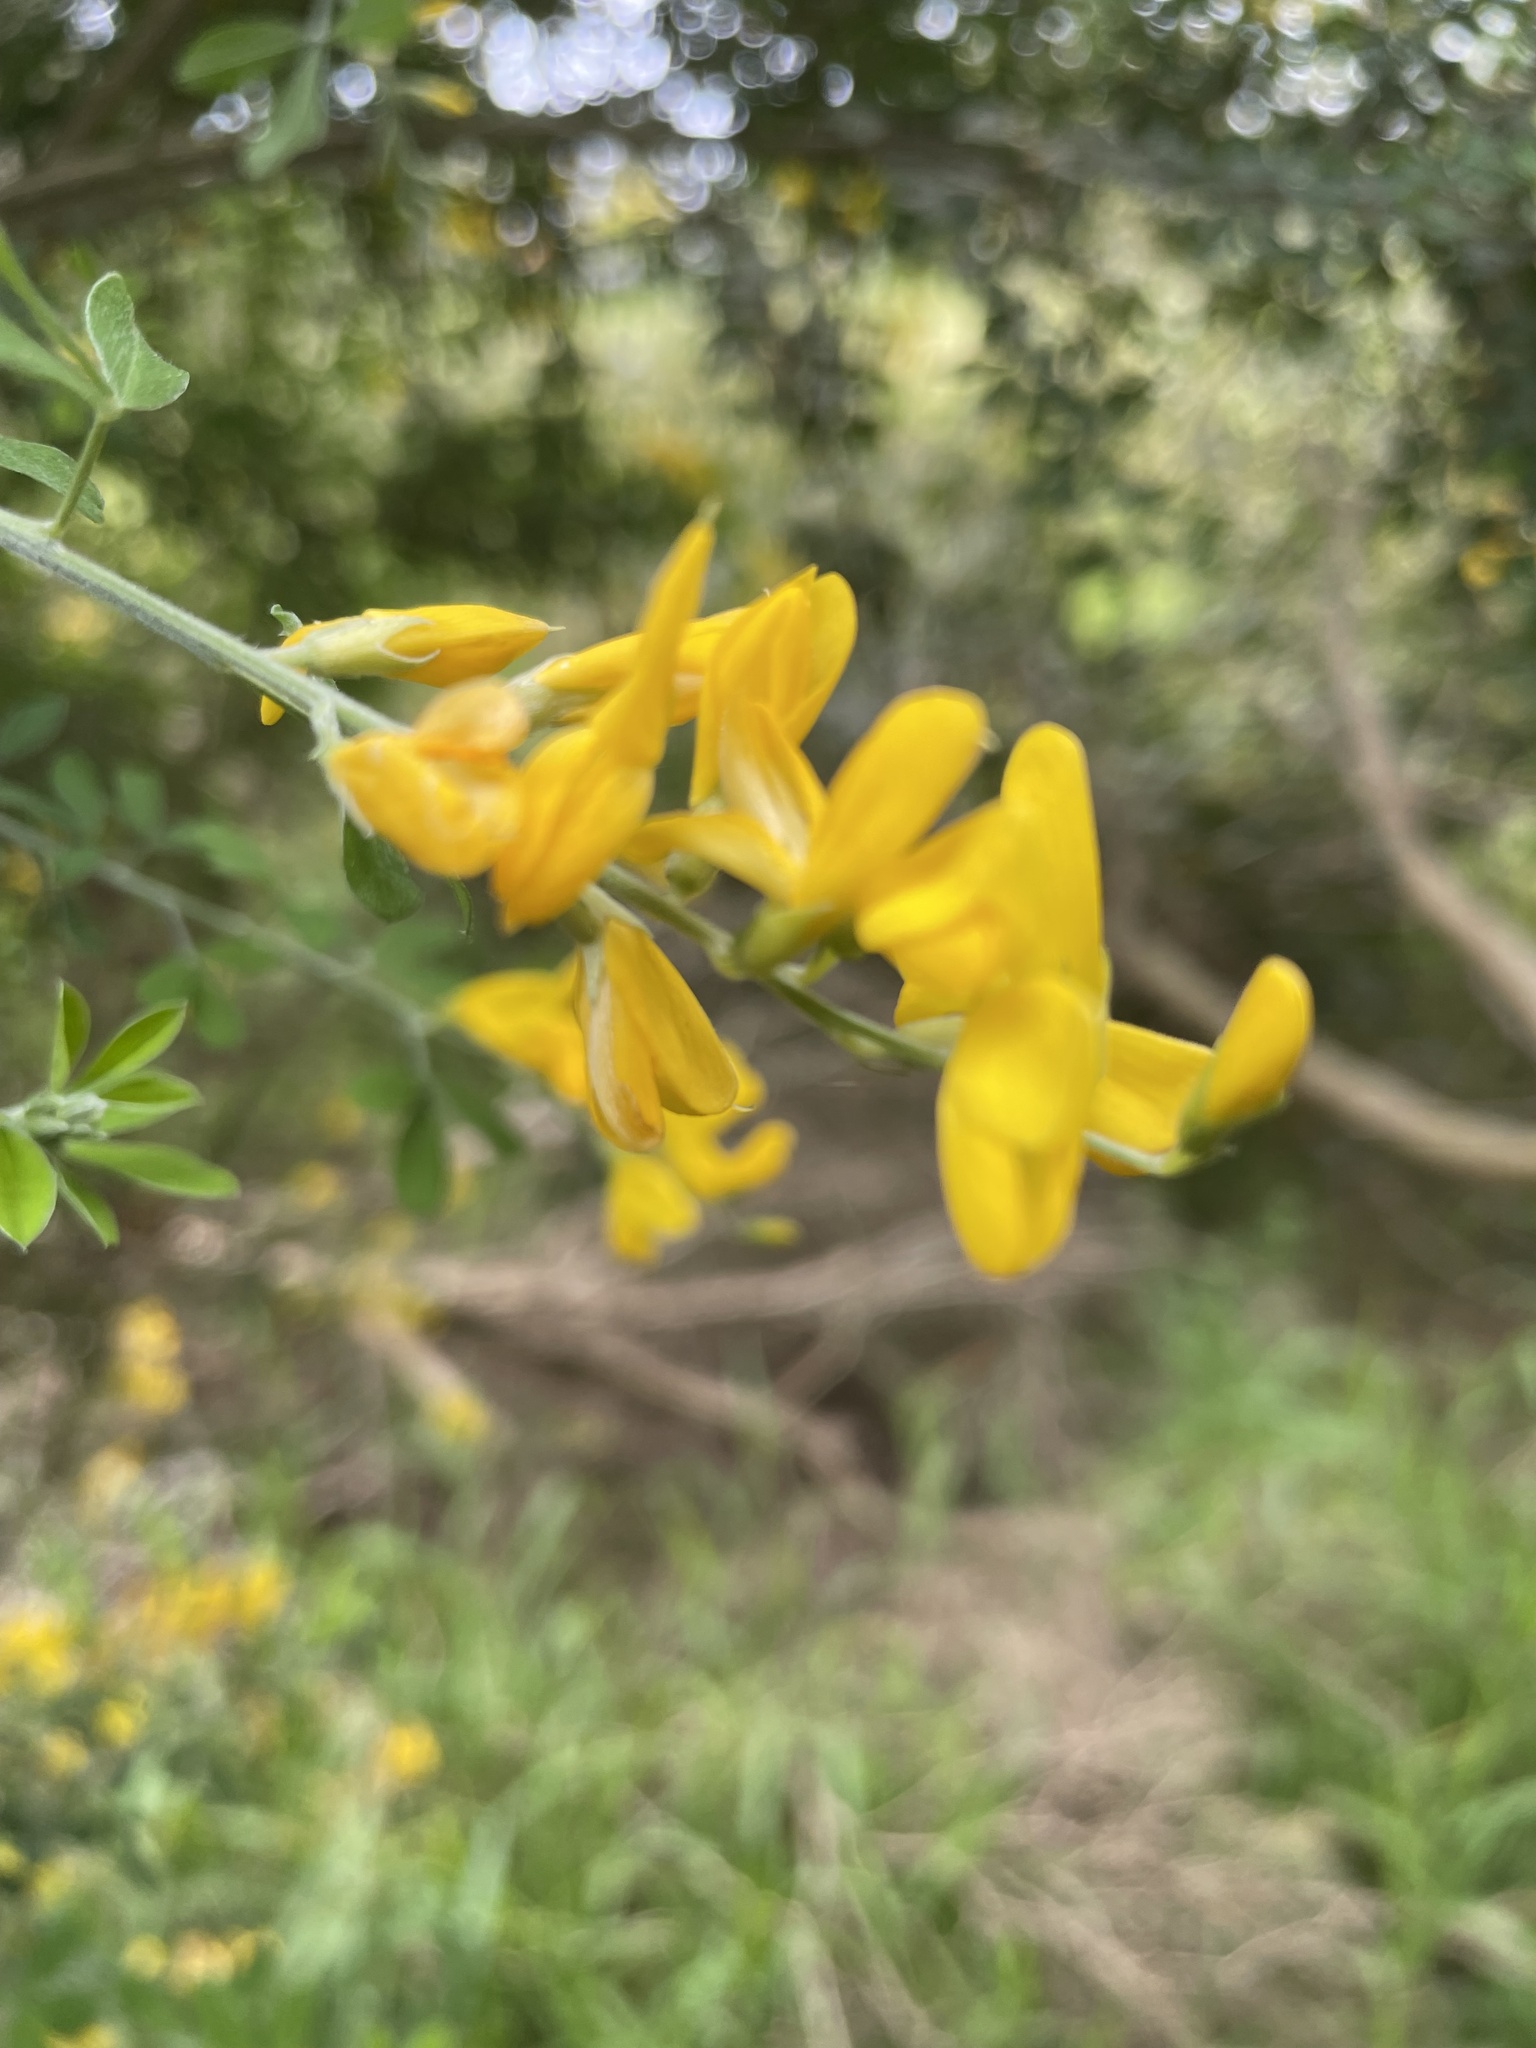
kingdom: Plantae
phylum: Tracheophyta
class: Magnoliopsida
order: Fabales
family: Fabaceae
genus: Genista
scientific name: Genista monspessulana
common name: Montpellier broom
